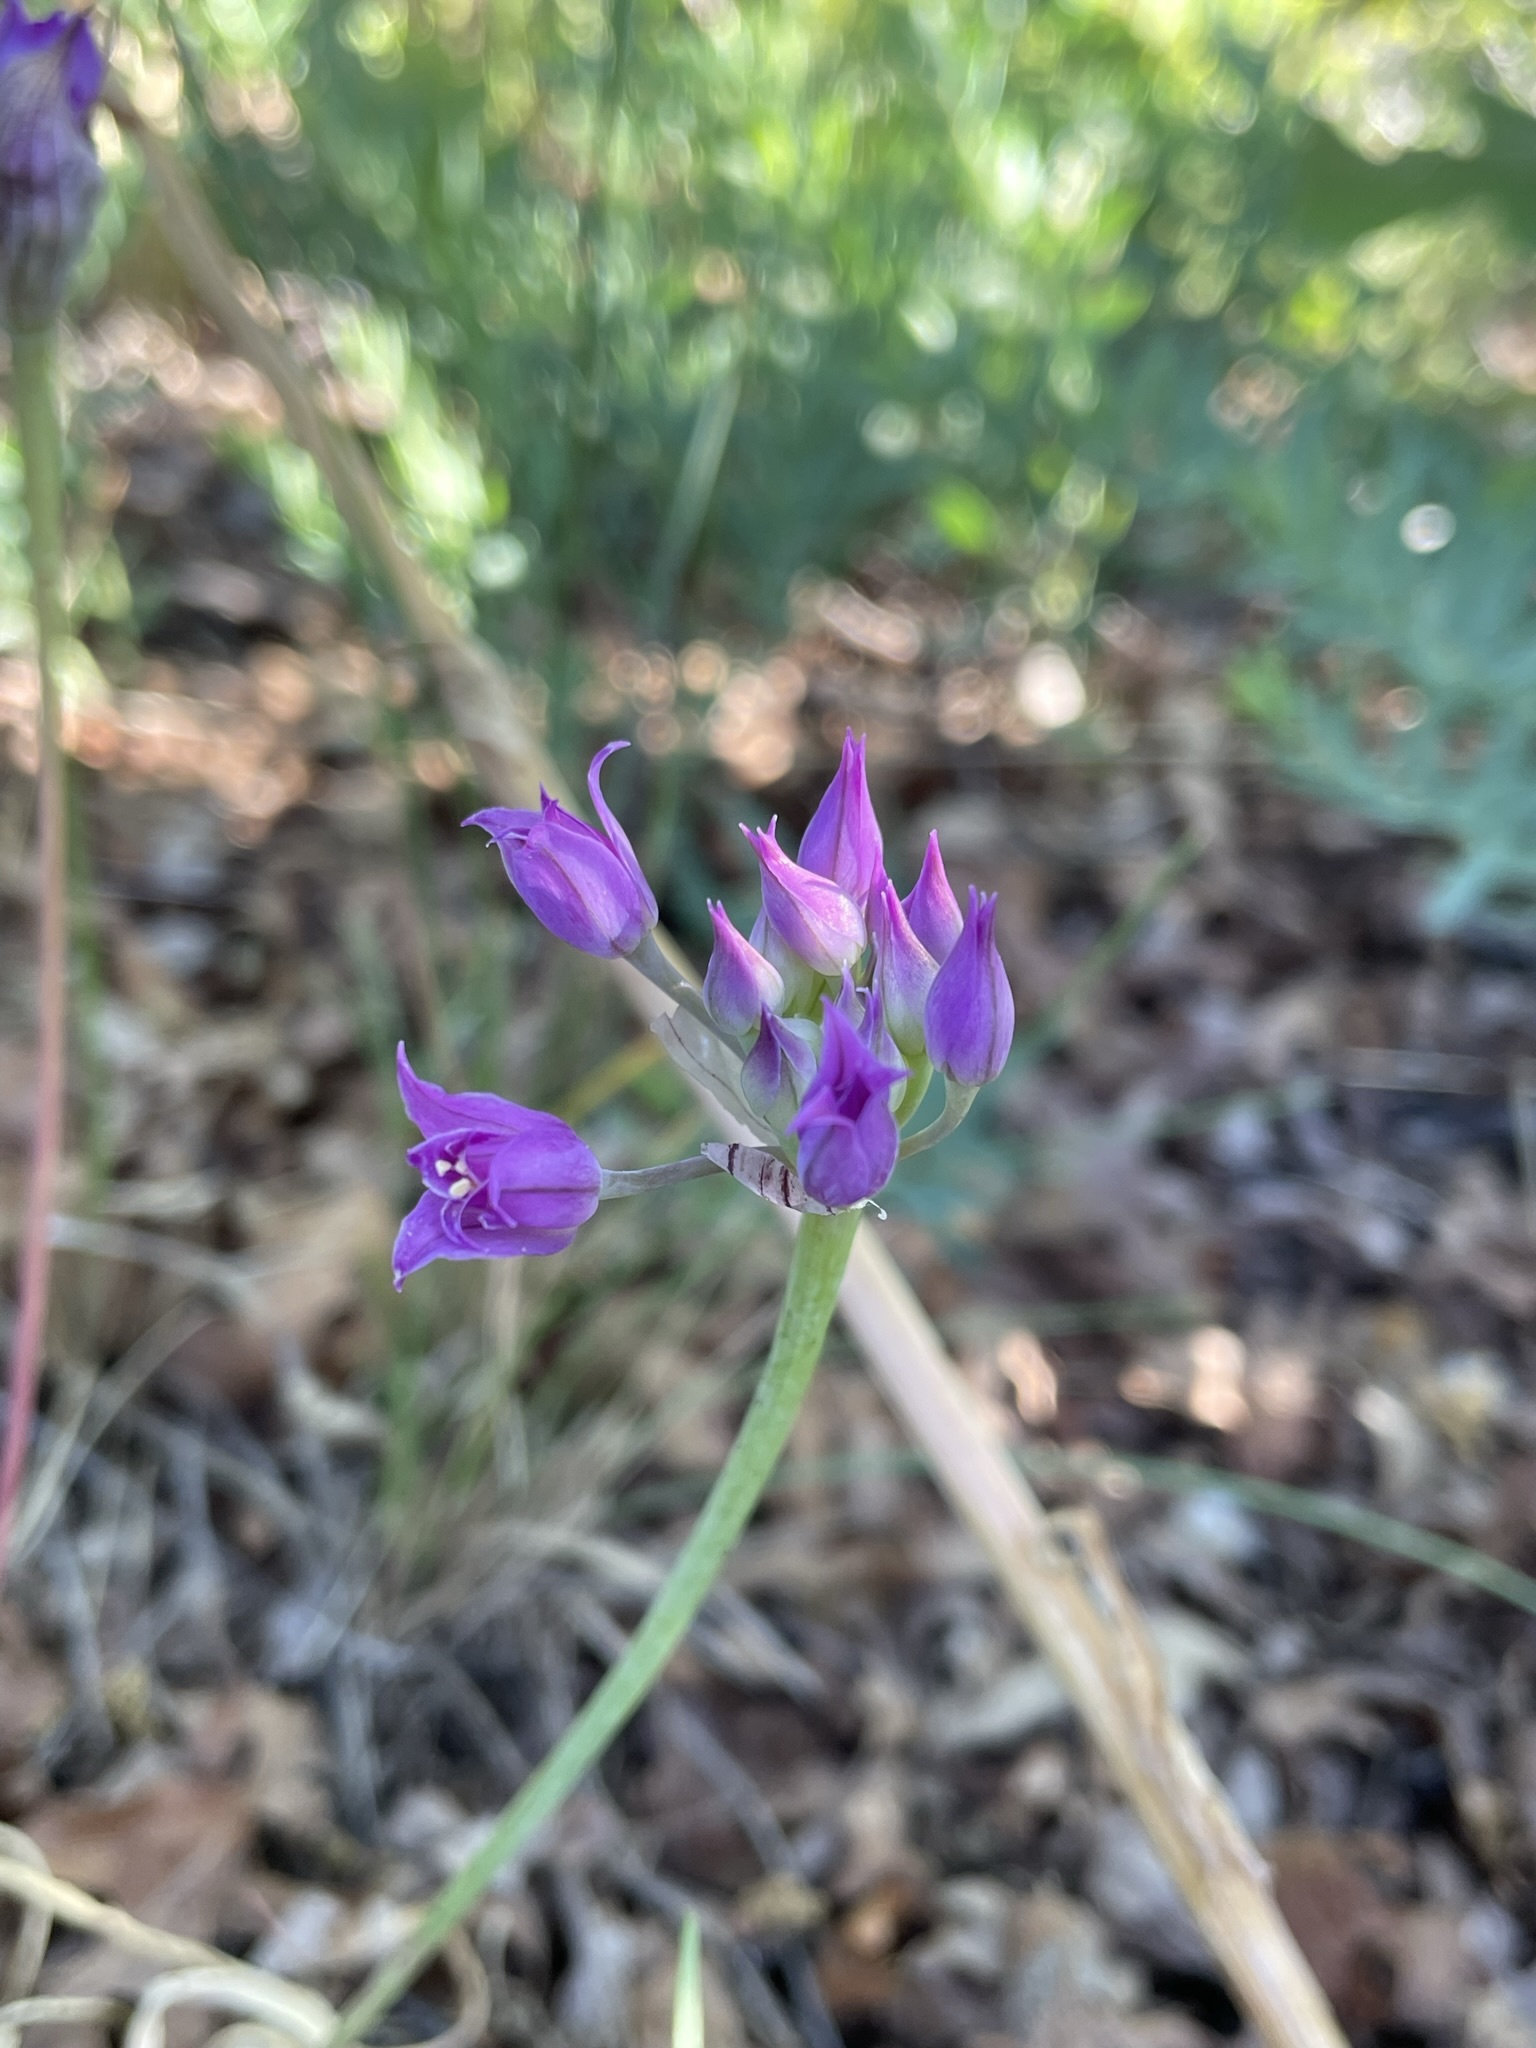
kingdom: Plantae
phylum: Tracheophyta
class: Liliopsida
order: Asparagales
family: Amaryllidaceae
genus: Allium
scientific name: Allium acuminatum
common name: Hooker's onion
